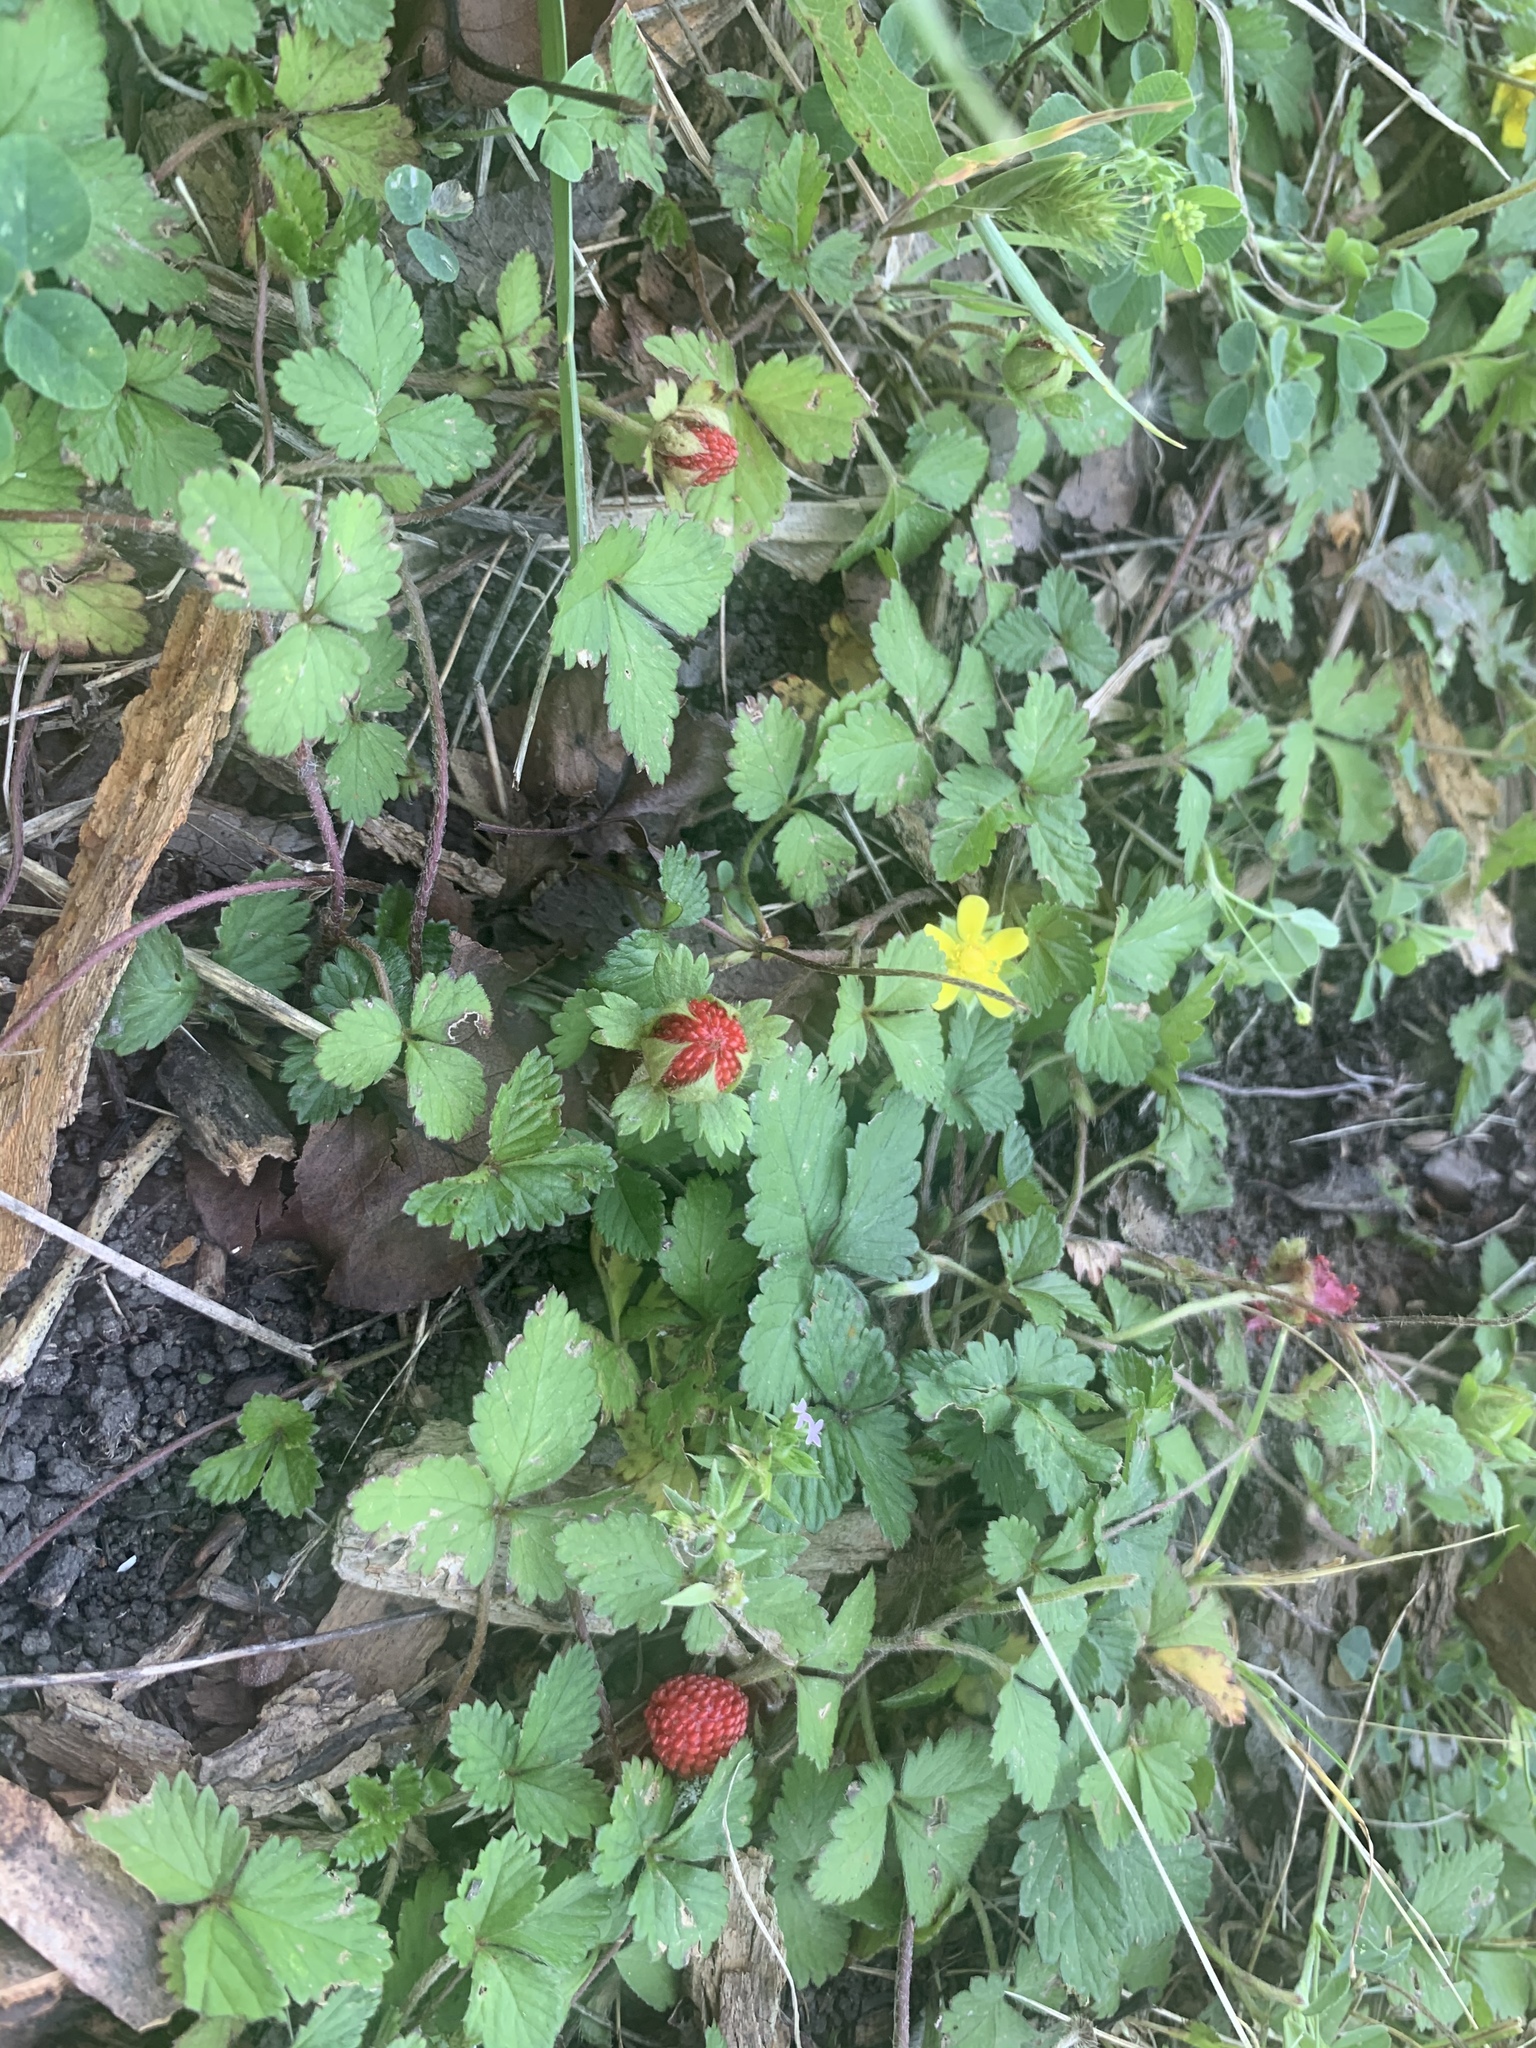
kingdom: Plantae
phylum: Tracheophyta
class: Magnoliopsida
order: Rosales
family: Rosaceae
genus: Potentilla
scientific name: Potentilla indica
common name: Yellow-flowered strawberry
